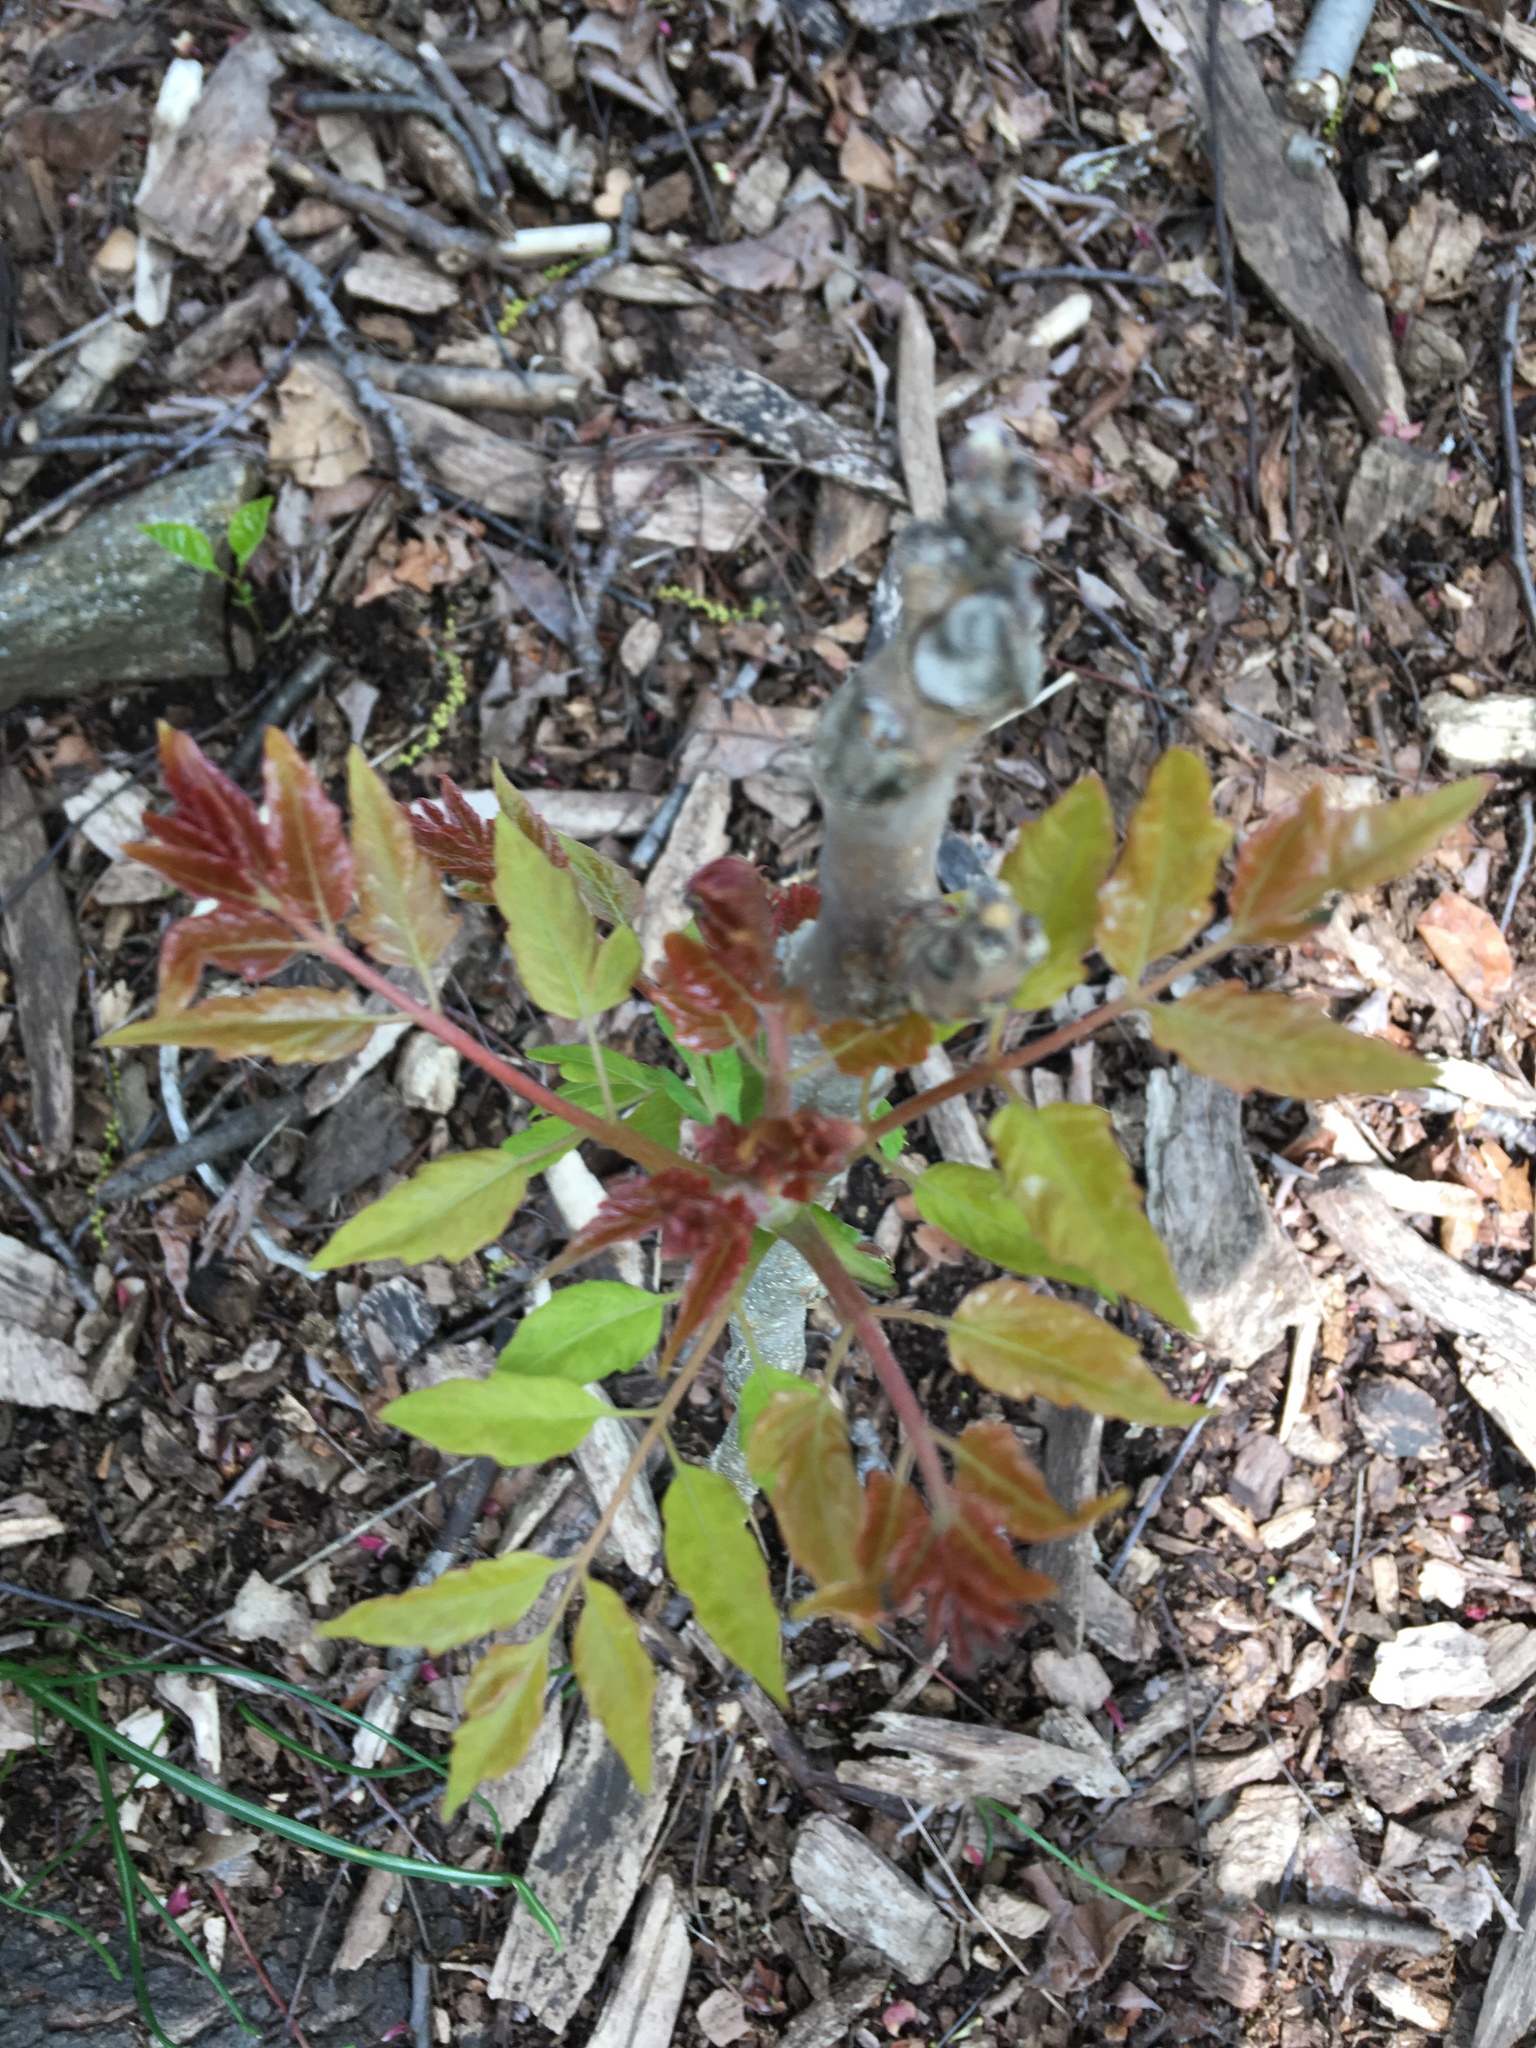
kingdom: Plantae
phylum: Tracheophyta
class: Magnoliopsida
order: Sapindales
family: Simaroubaceae
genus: Ailanthus
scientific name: Ailanthus altissima
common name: Tree-of-heaven
